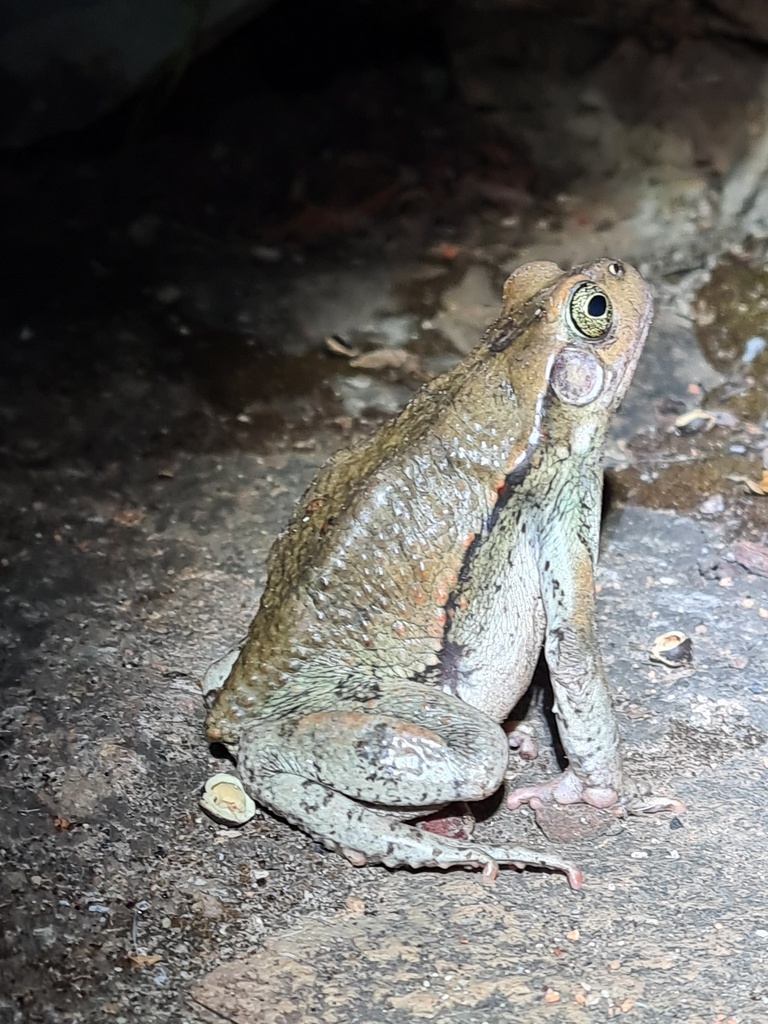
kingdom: Animalia
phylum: Chordata
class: Amphibia
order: Anura
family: Bufonidae
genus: Schismaderma
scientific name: Schismaderma carens
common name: African split-skin toad
